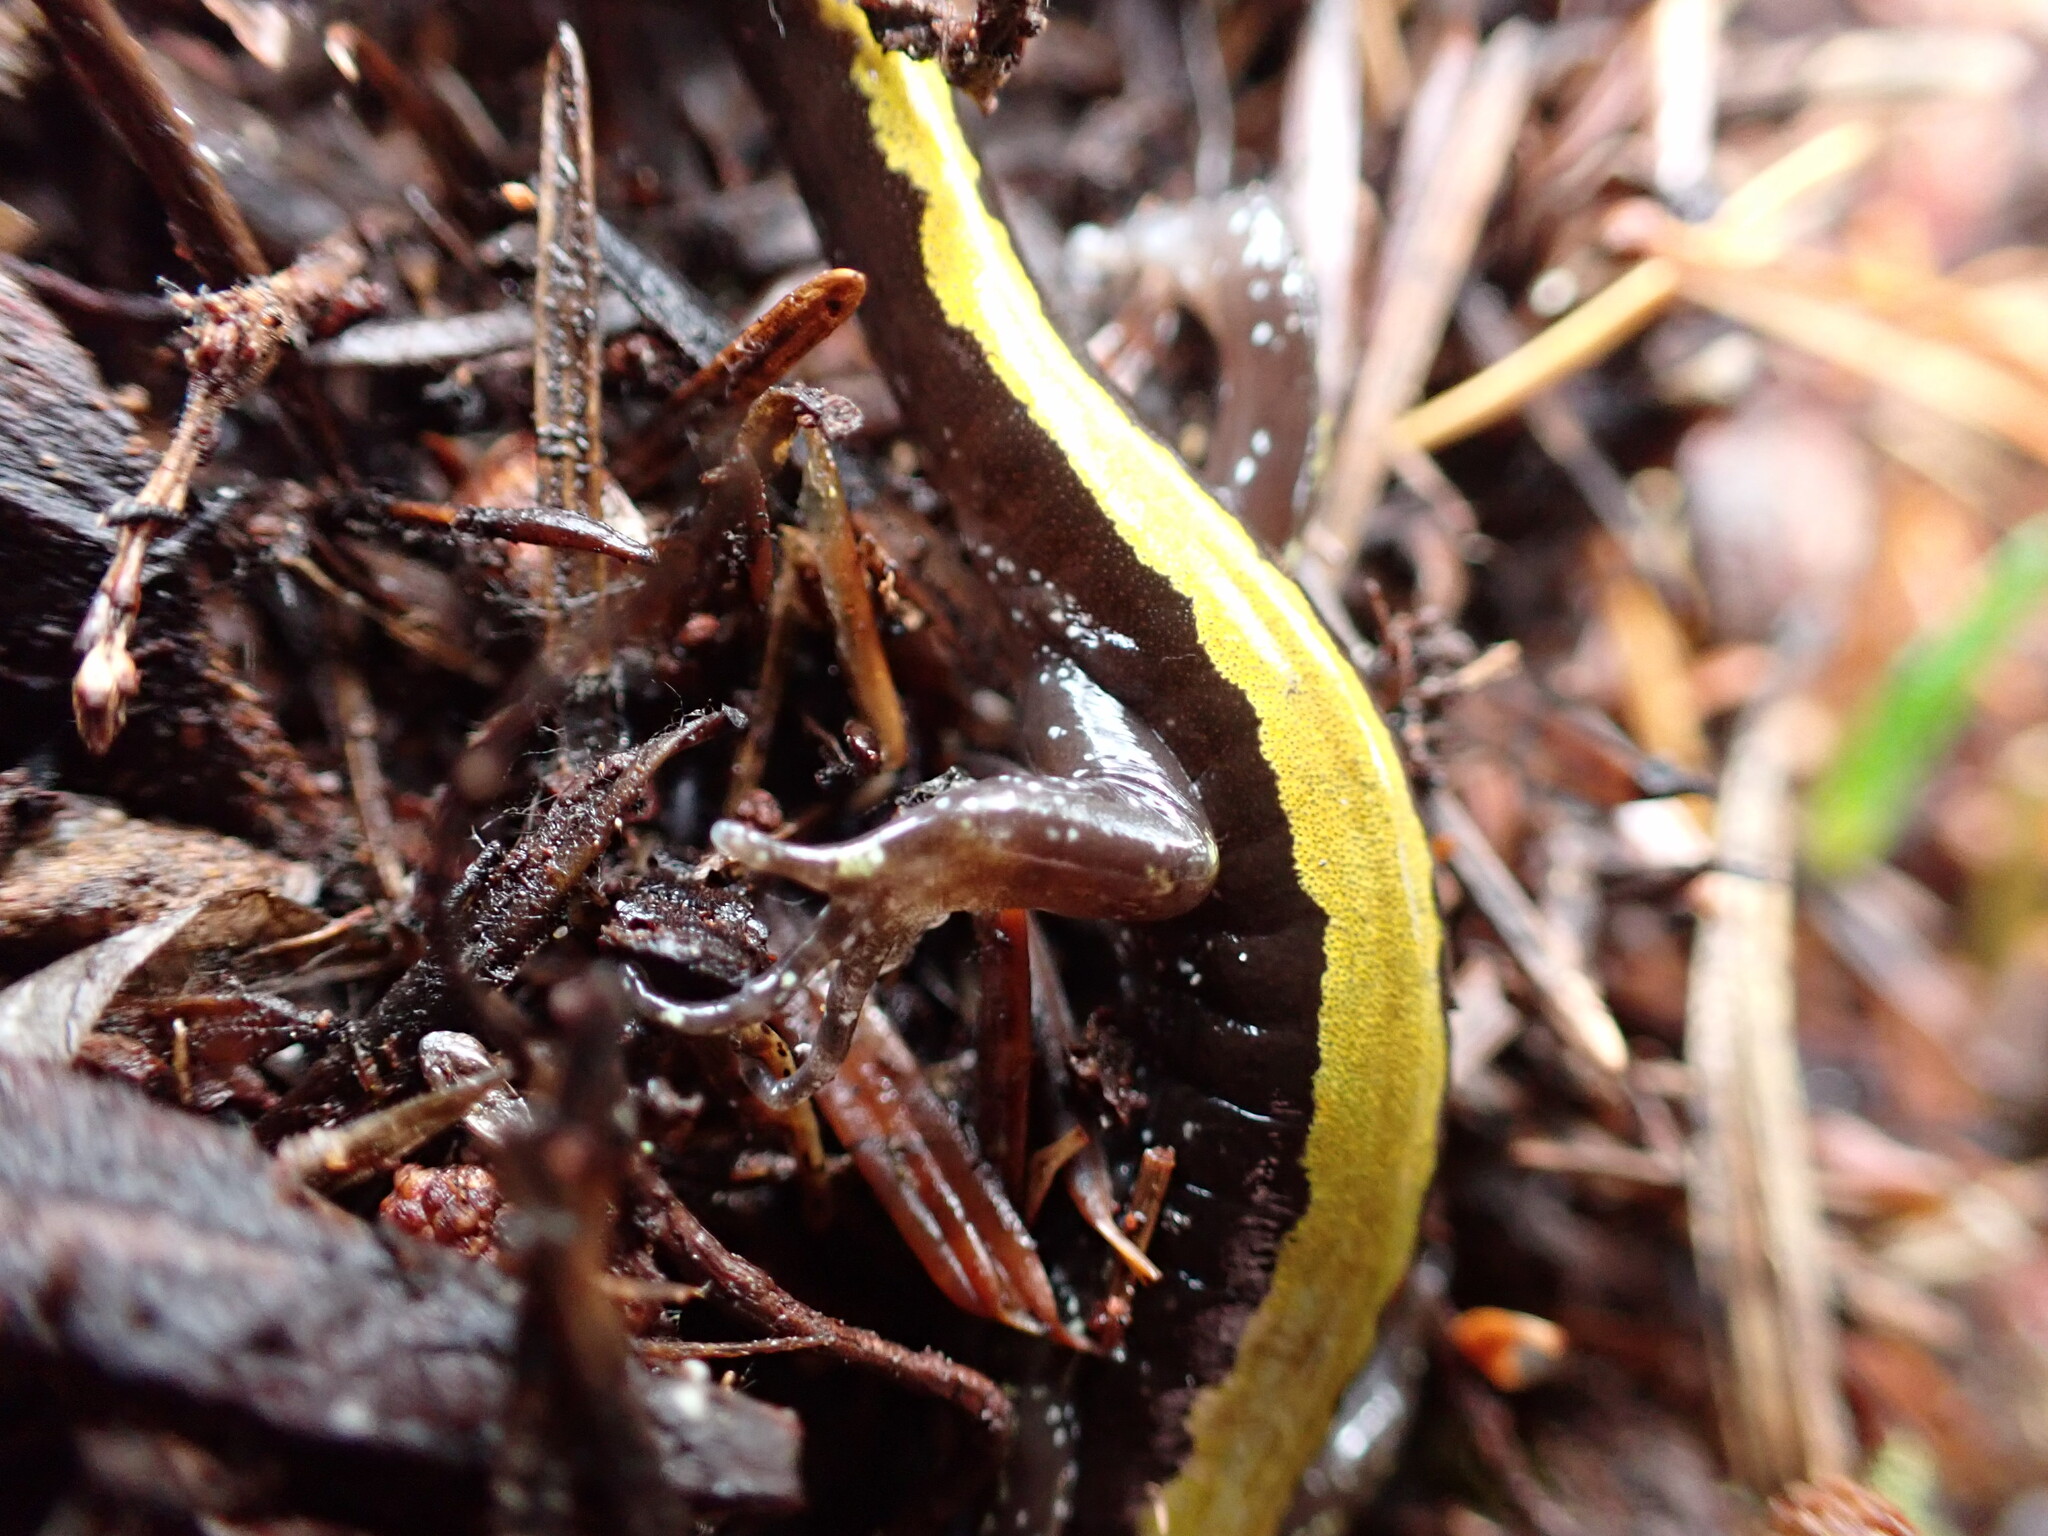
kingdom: Animalia
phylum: Chordata
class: Amphibia
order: Caudata
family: Ambystomatidae
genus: Ambystoma
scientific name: Ambystoma macrodactylum
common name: Long-toed salamander
